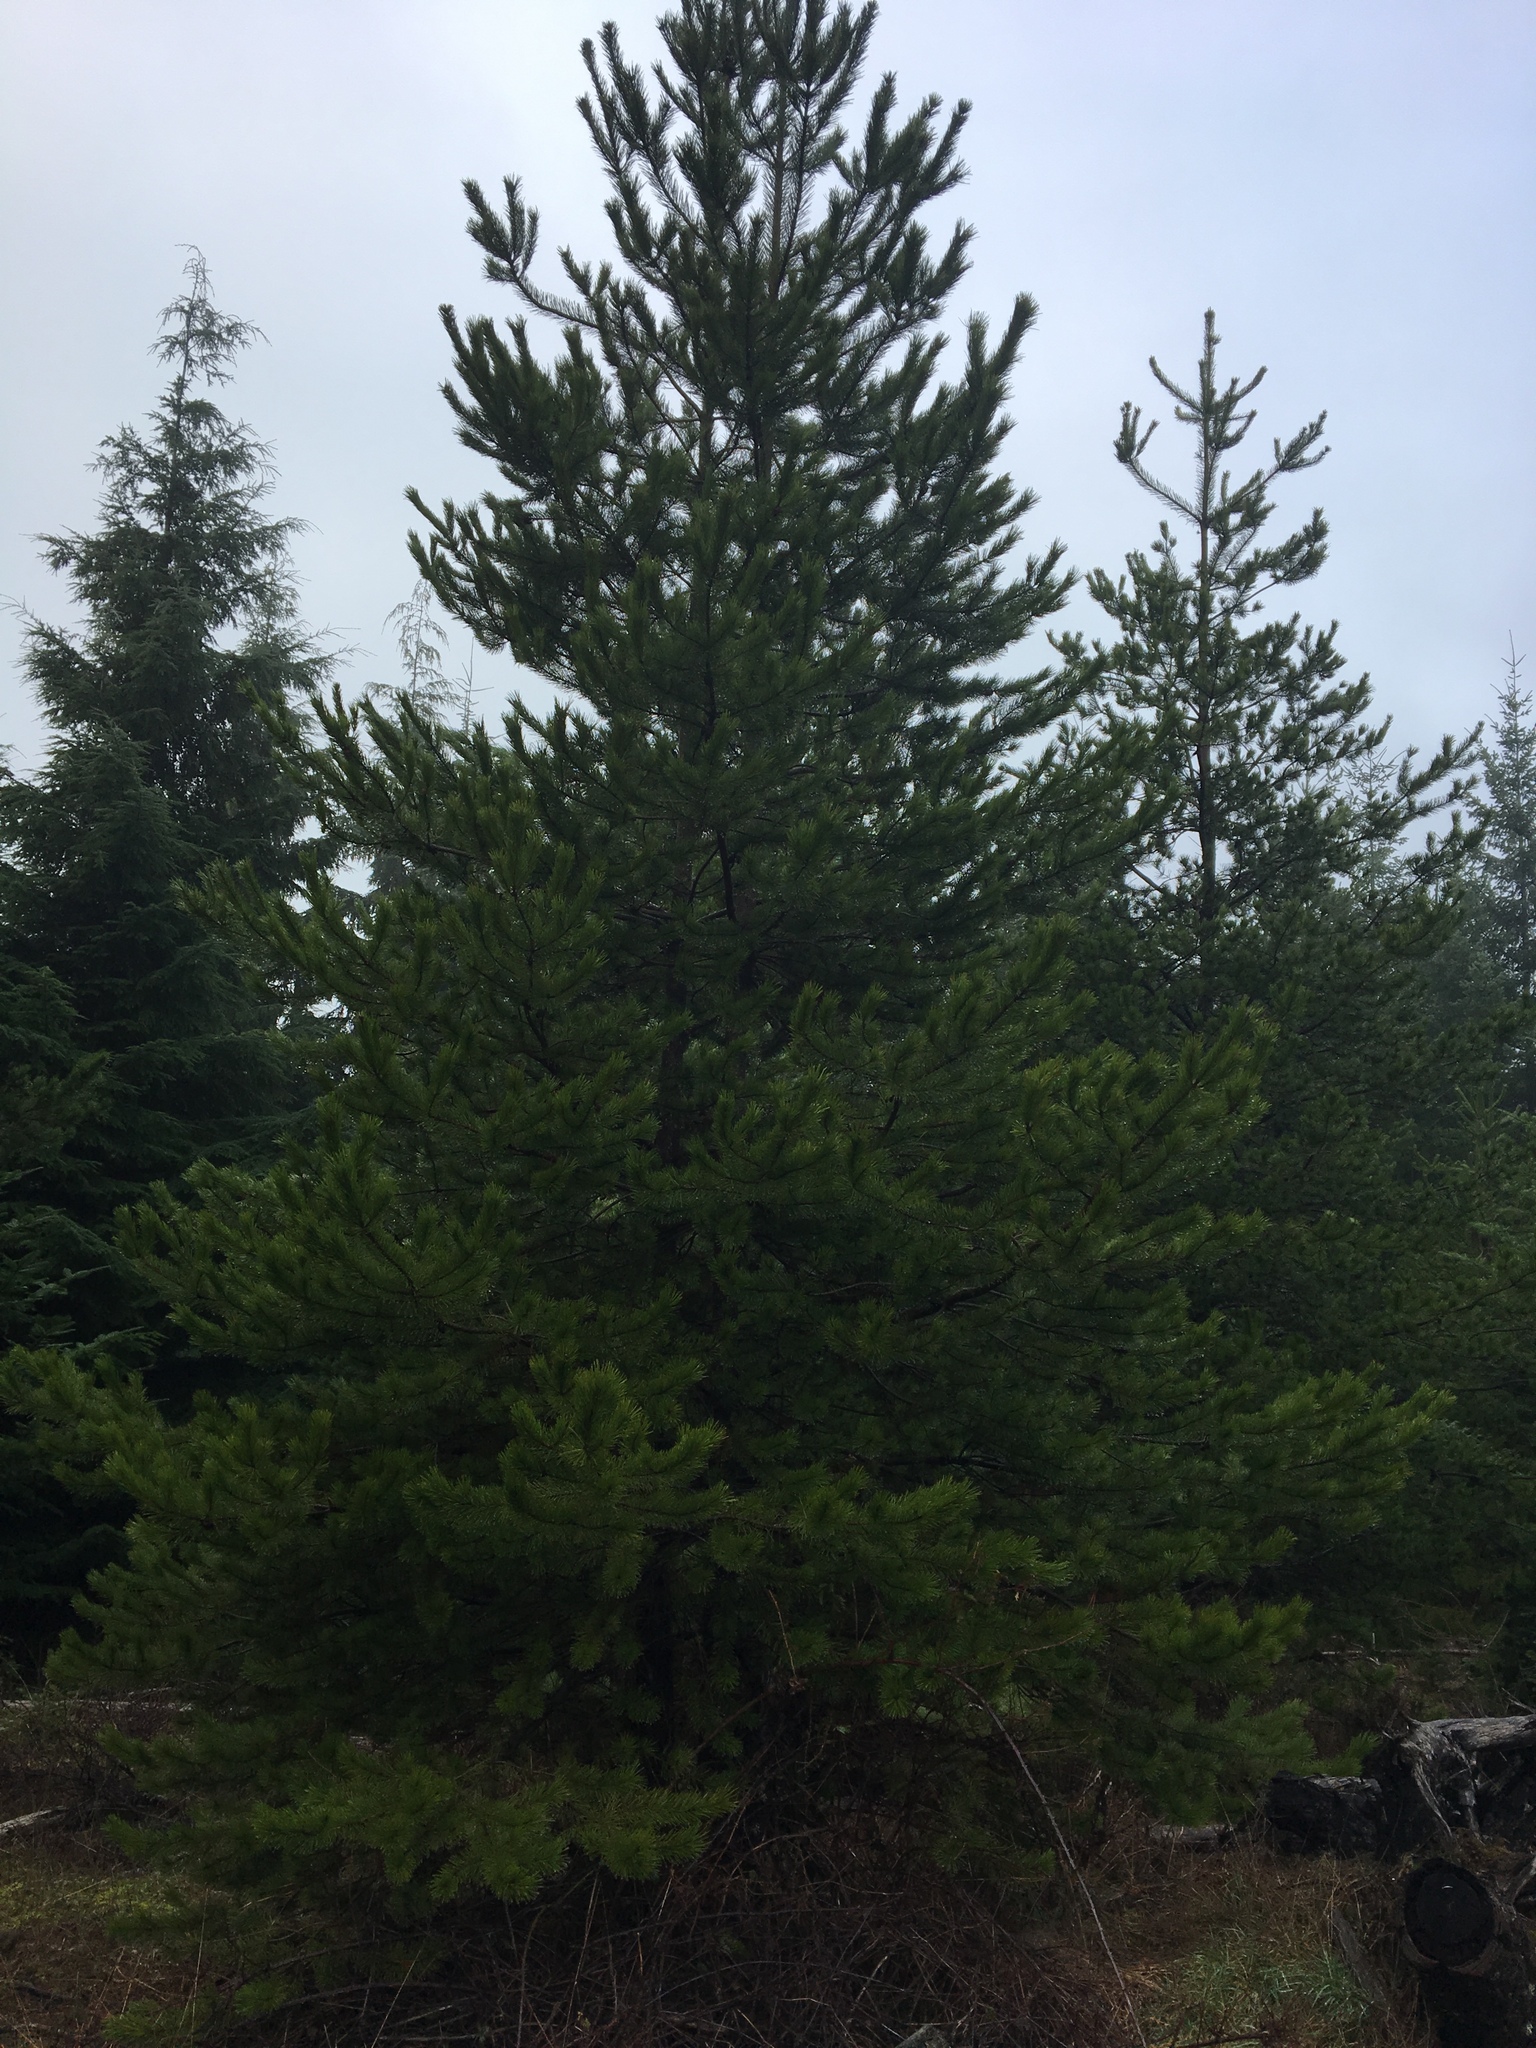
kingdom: Plantae
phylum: Tracheophyta
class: Pinopsida
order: Pinales
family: Pinaceae
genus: Pinus
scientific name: Pinus contorta
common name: Lodgepole pine
